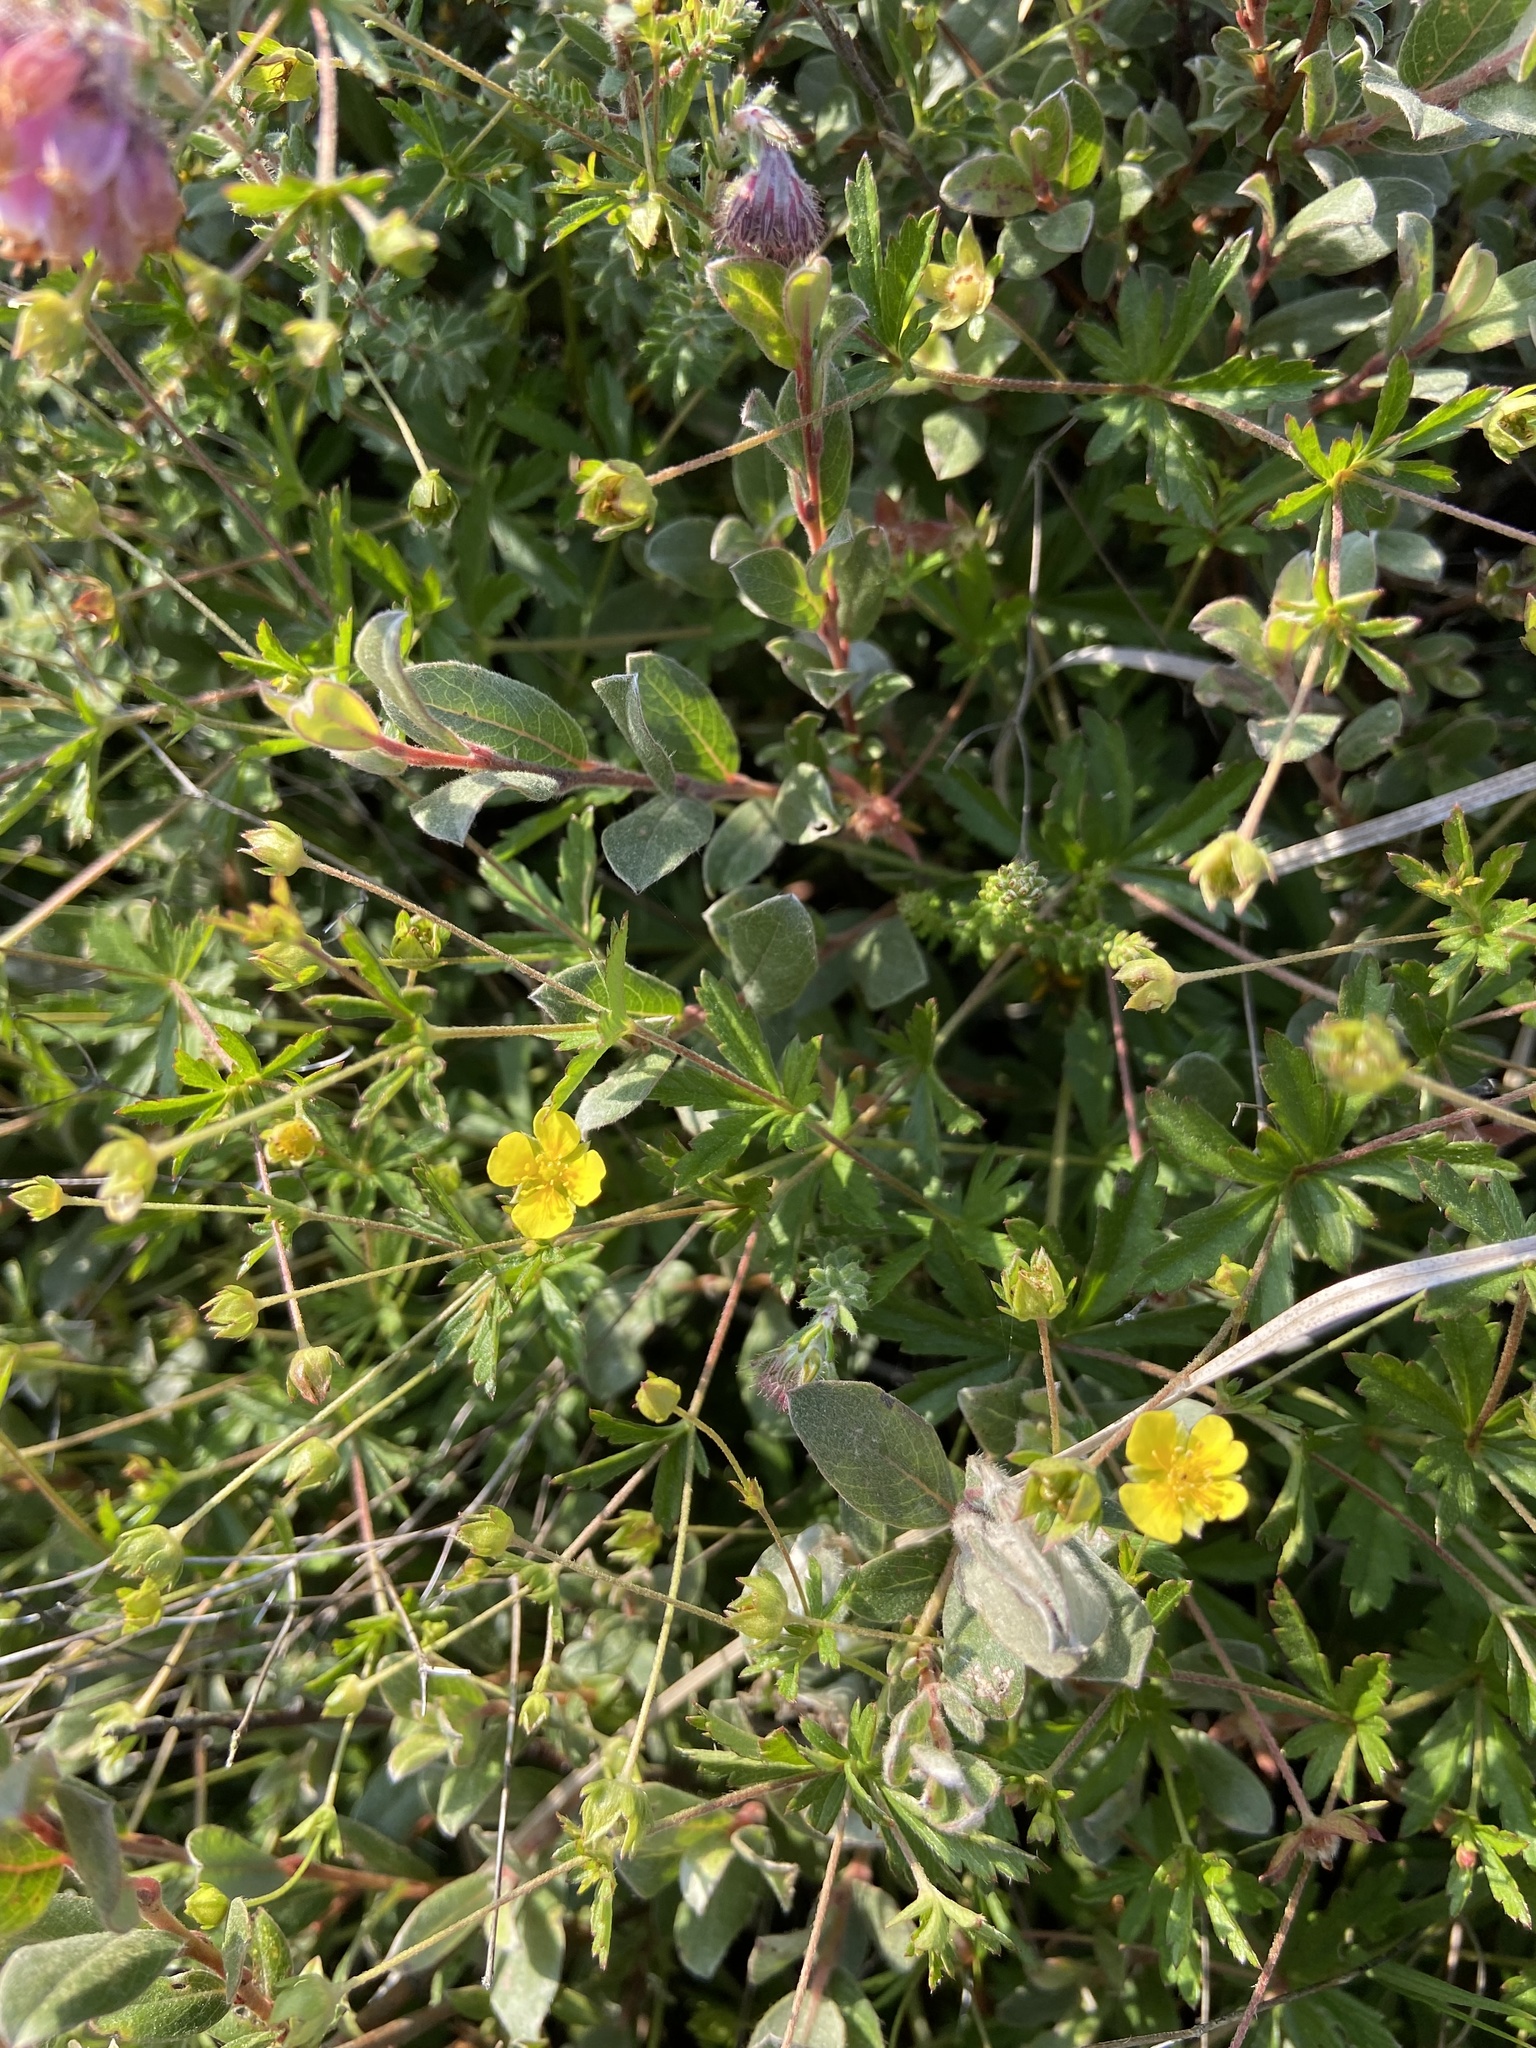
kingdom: Plantae
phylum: Tracheophyta
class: Magnoliopsida
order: Rosales
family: Rosaceae
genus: Potentilla
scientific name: Potentilla erecta
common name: Tormentil
